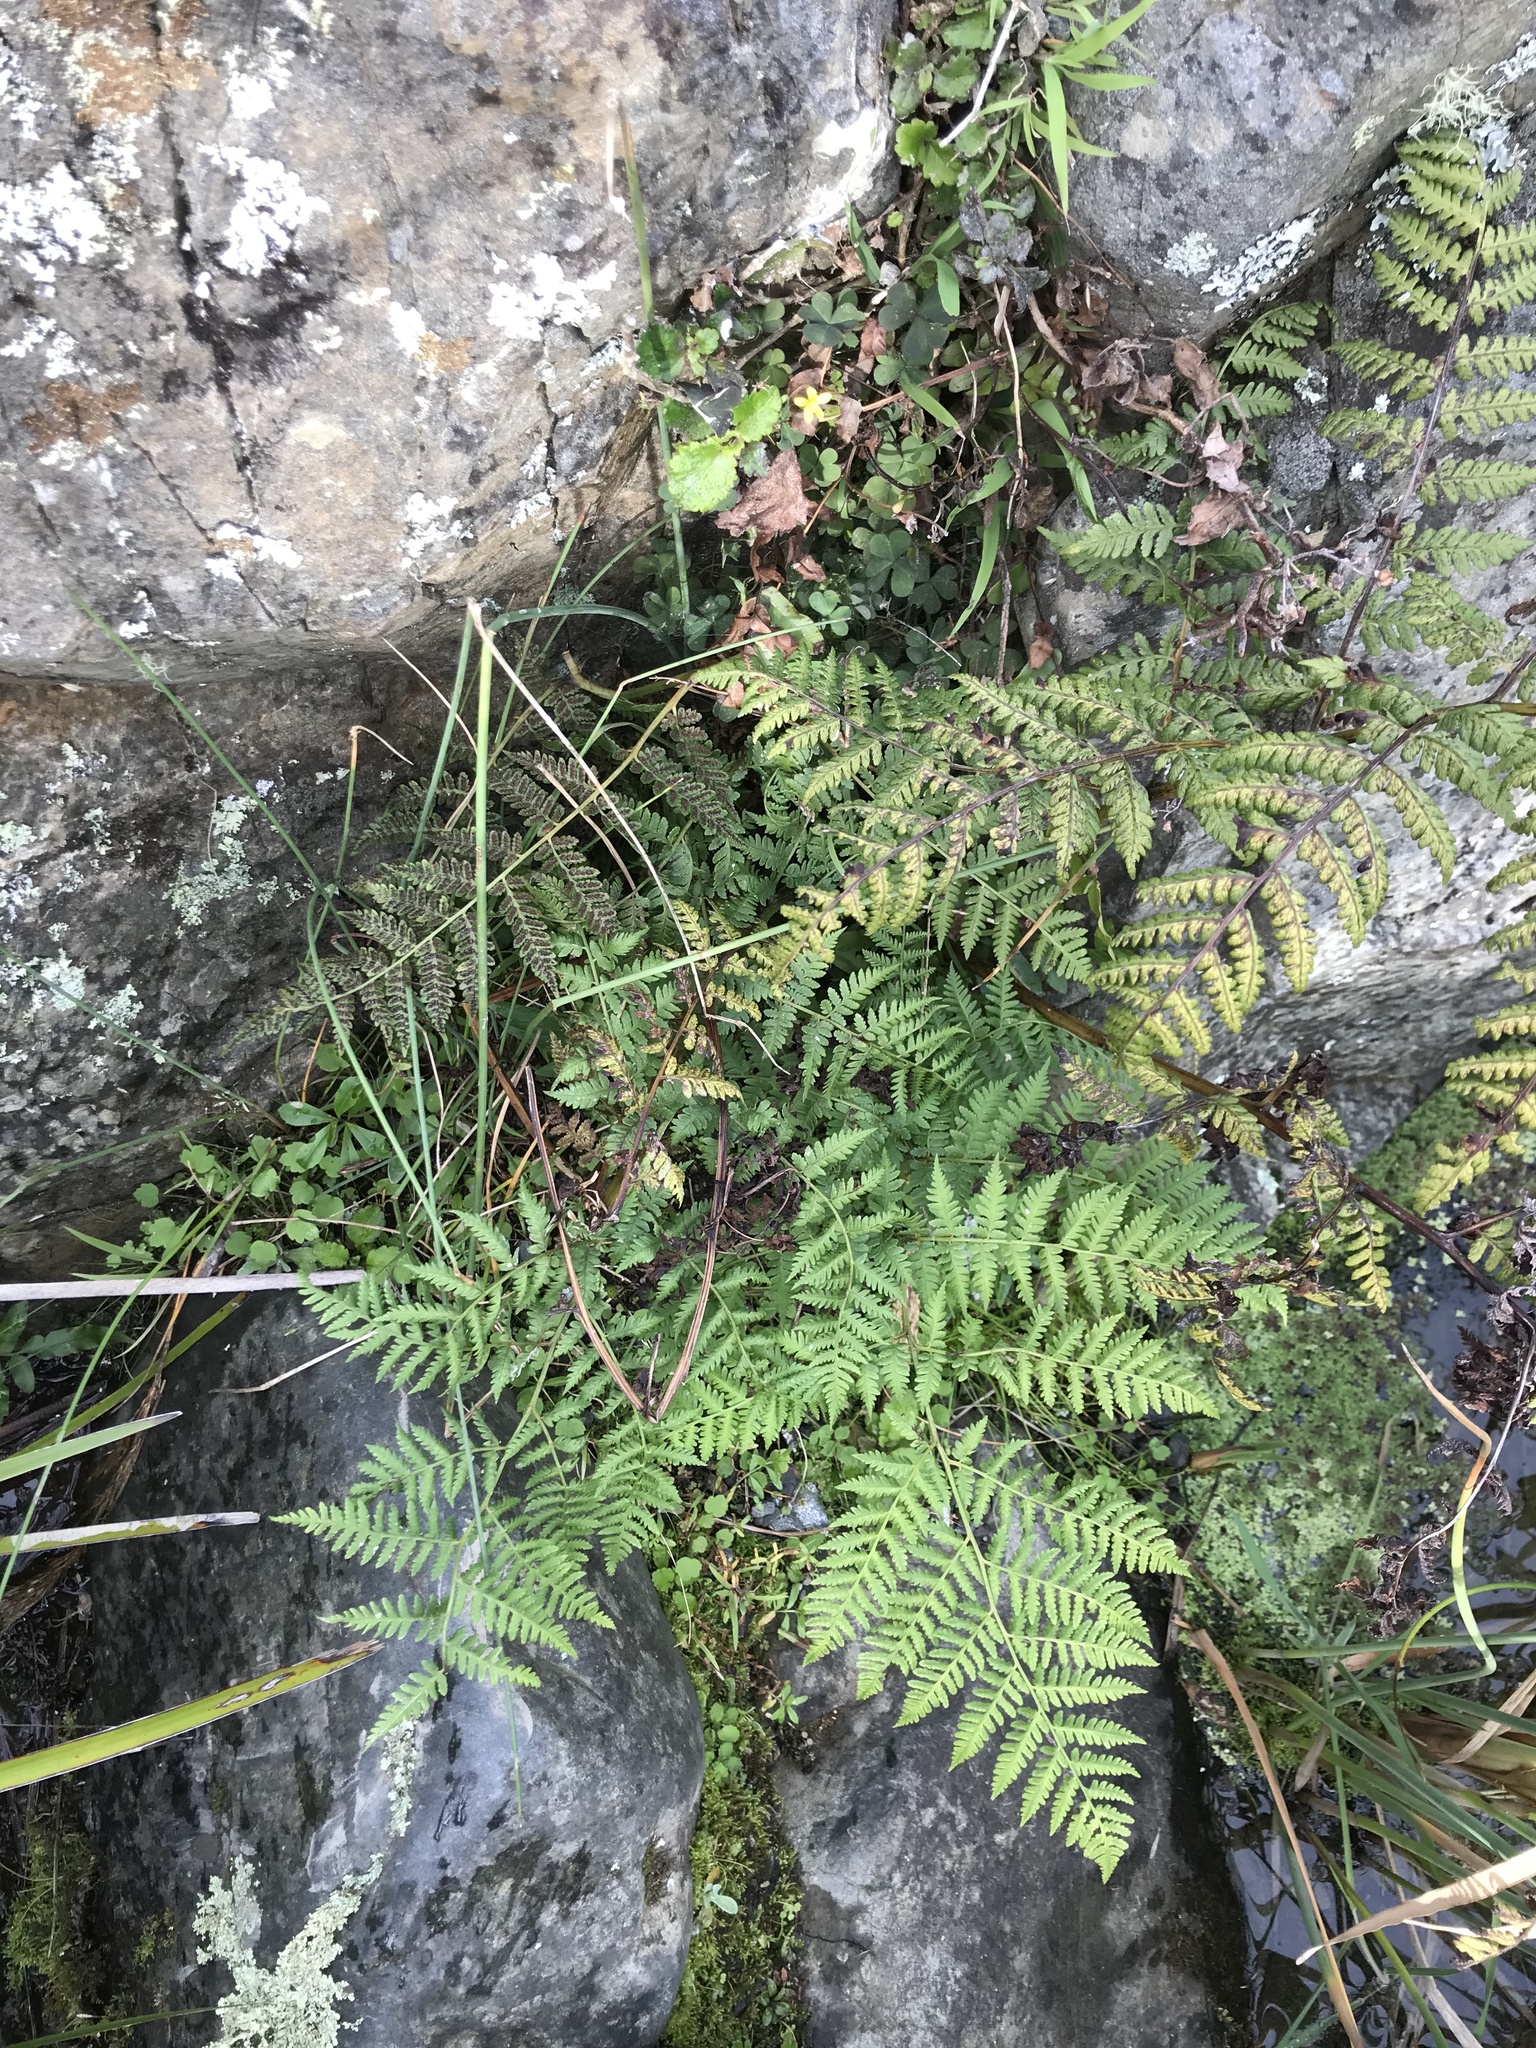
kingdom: Plantae
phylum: Tracheophyta
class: Polypodiopsida
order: Polypodiales
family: Dennstaedtiaceae
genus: Hypolepis
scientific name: Hypolepis ambigua
